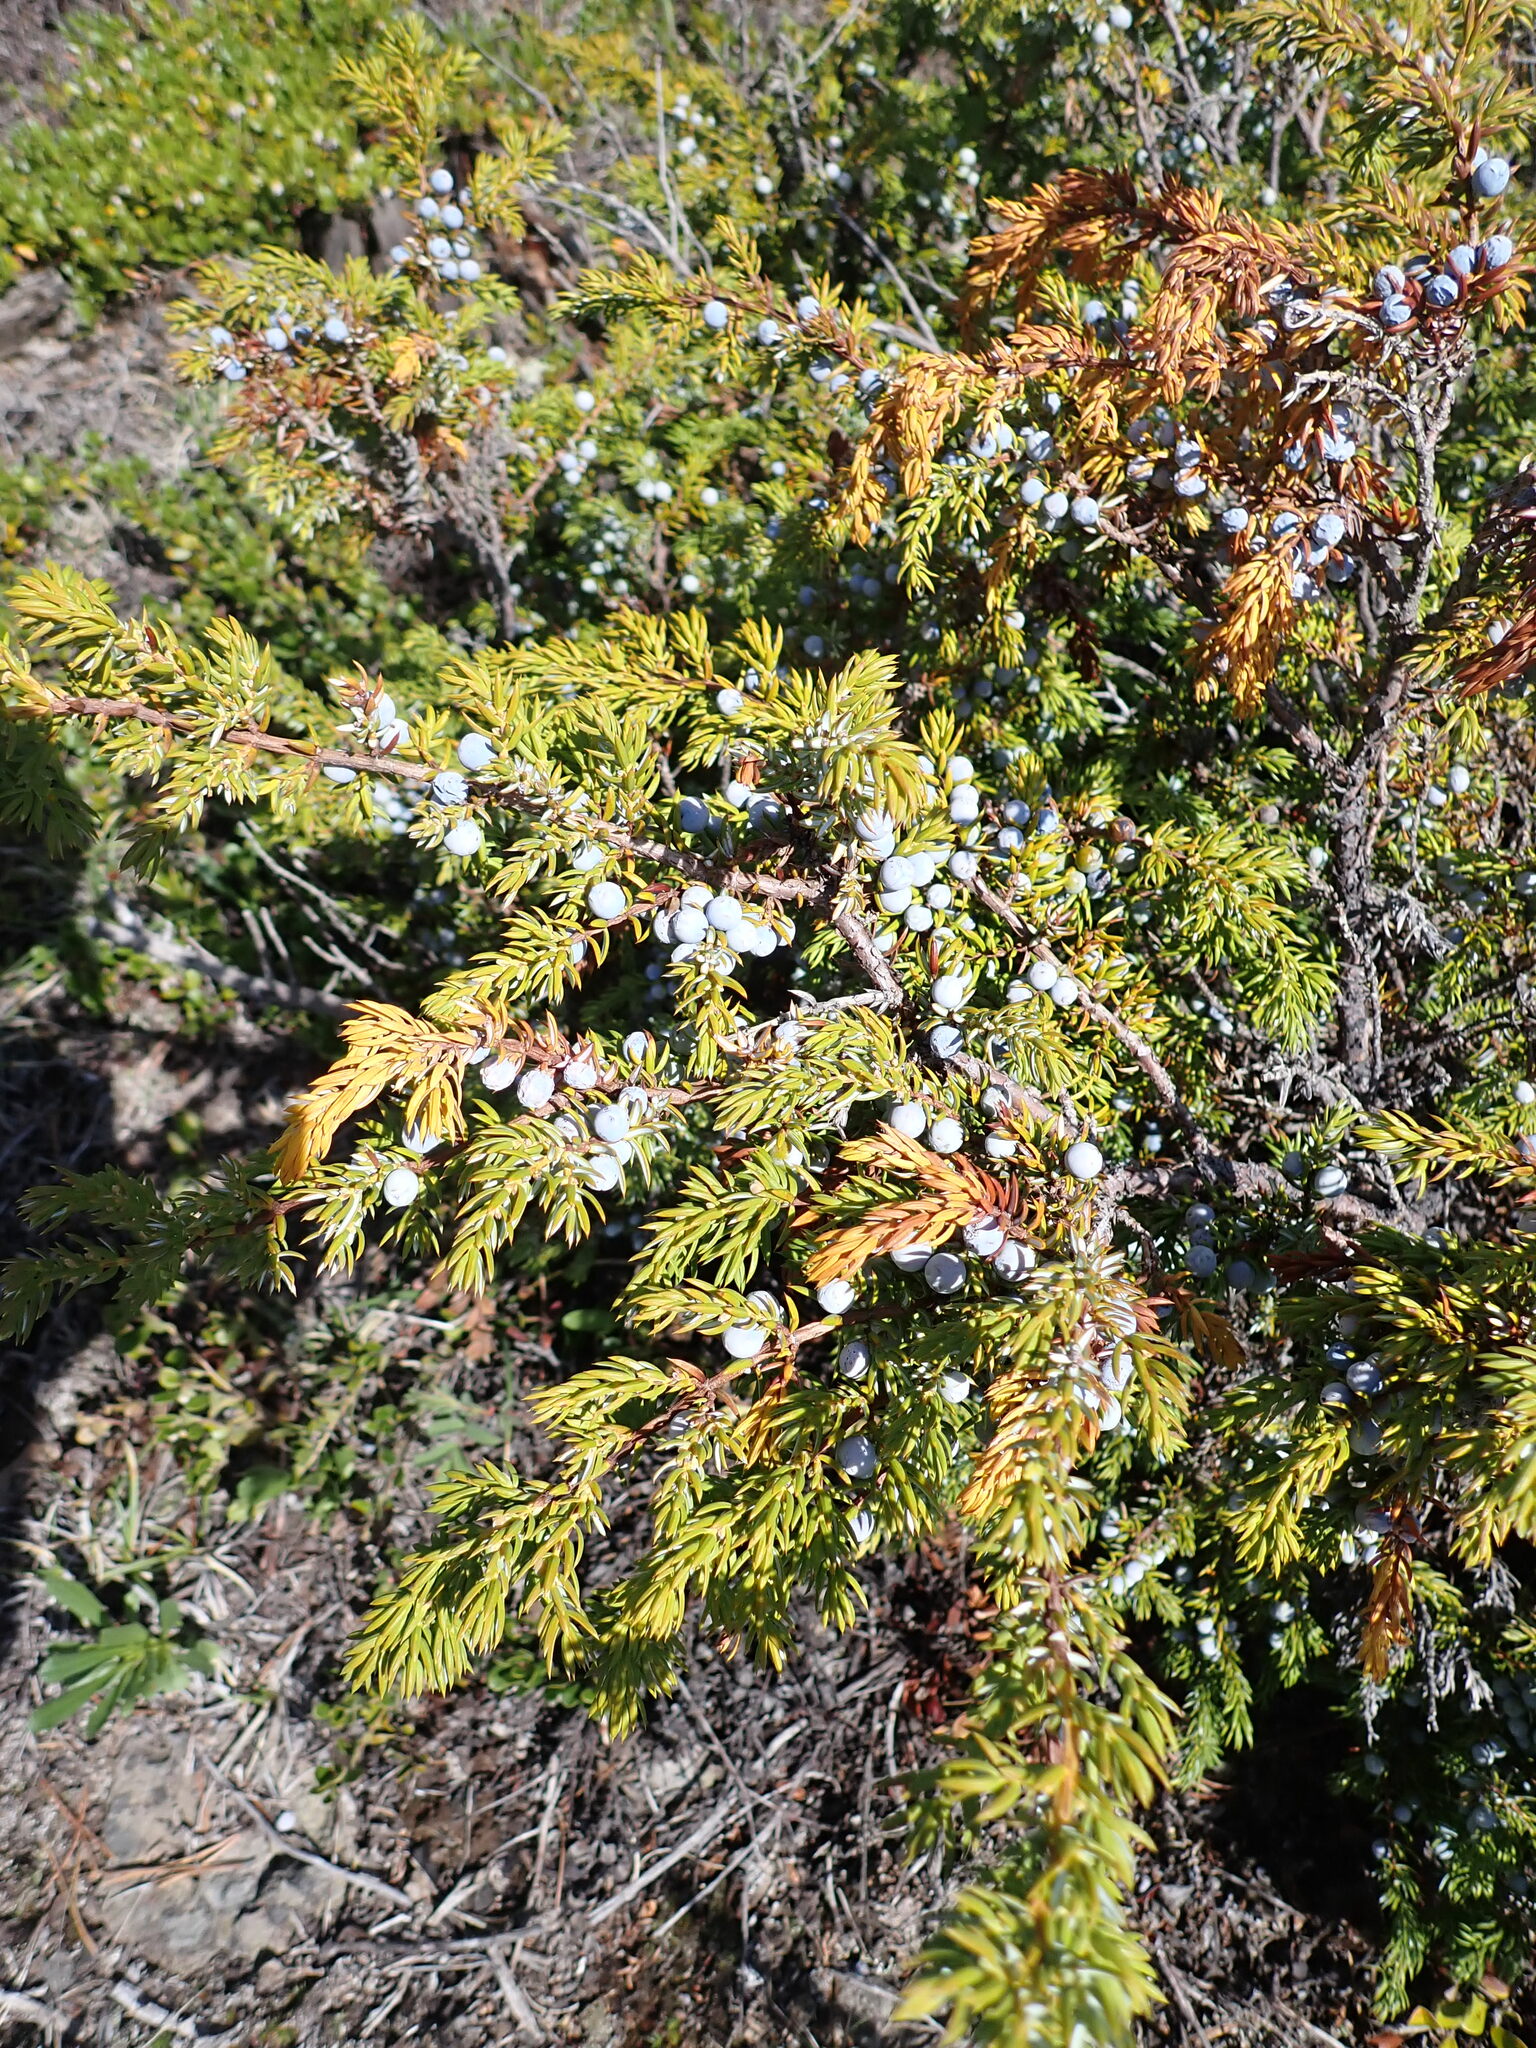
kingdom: Plantae
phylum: Tracheophyta
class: Pinopsida
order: Pinales
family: Cupressaceae
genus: Juniperus
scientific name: Juniperus communis
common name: Common juniper
